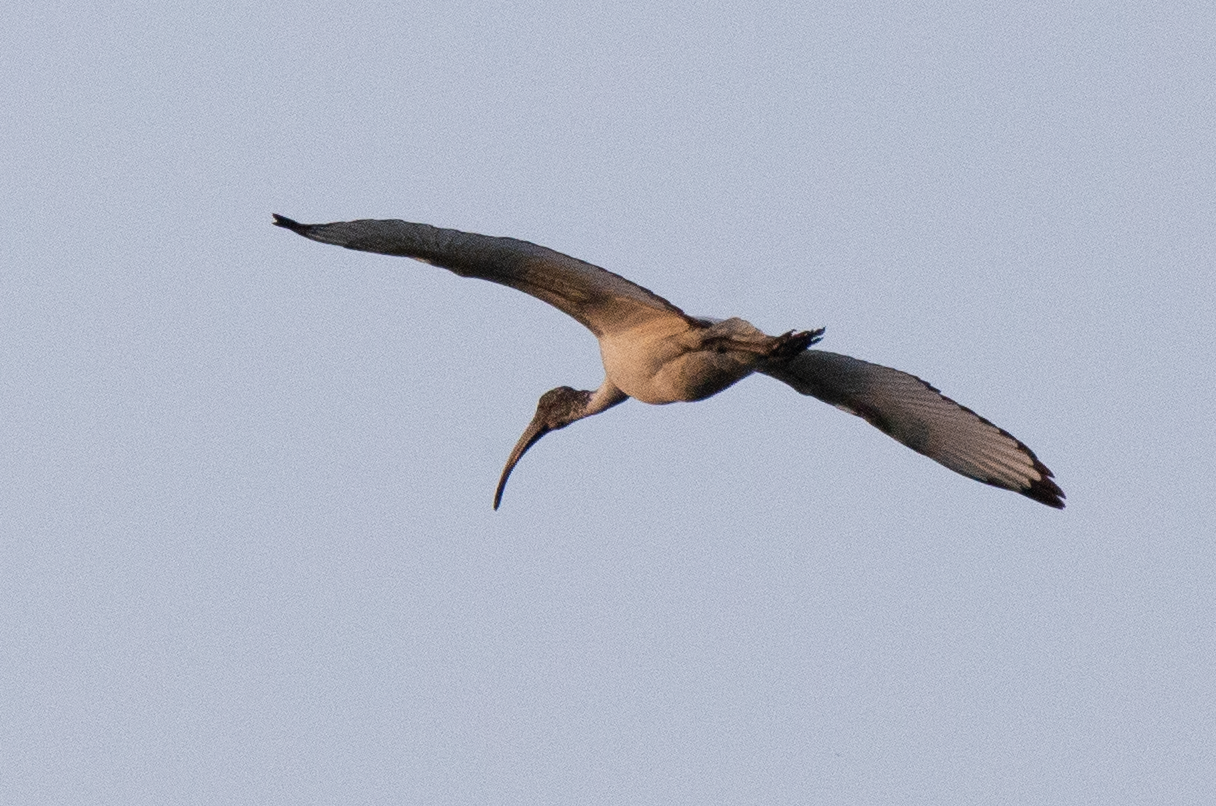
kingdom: Animalia
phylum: Chordata
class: Aves
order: Pelecaniformes
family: Threskiornithidae
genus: Threskiornis
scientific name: Threskiornis aethiopicus
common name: Sacred ibis
